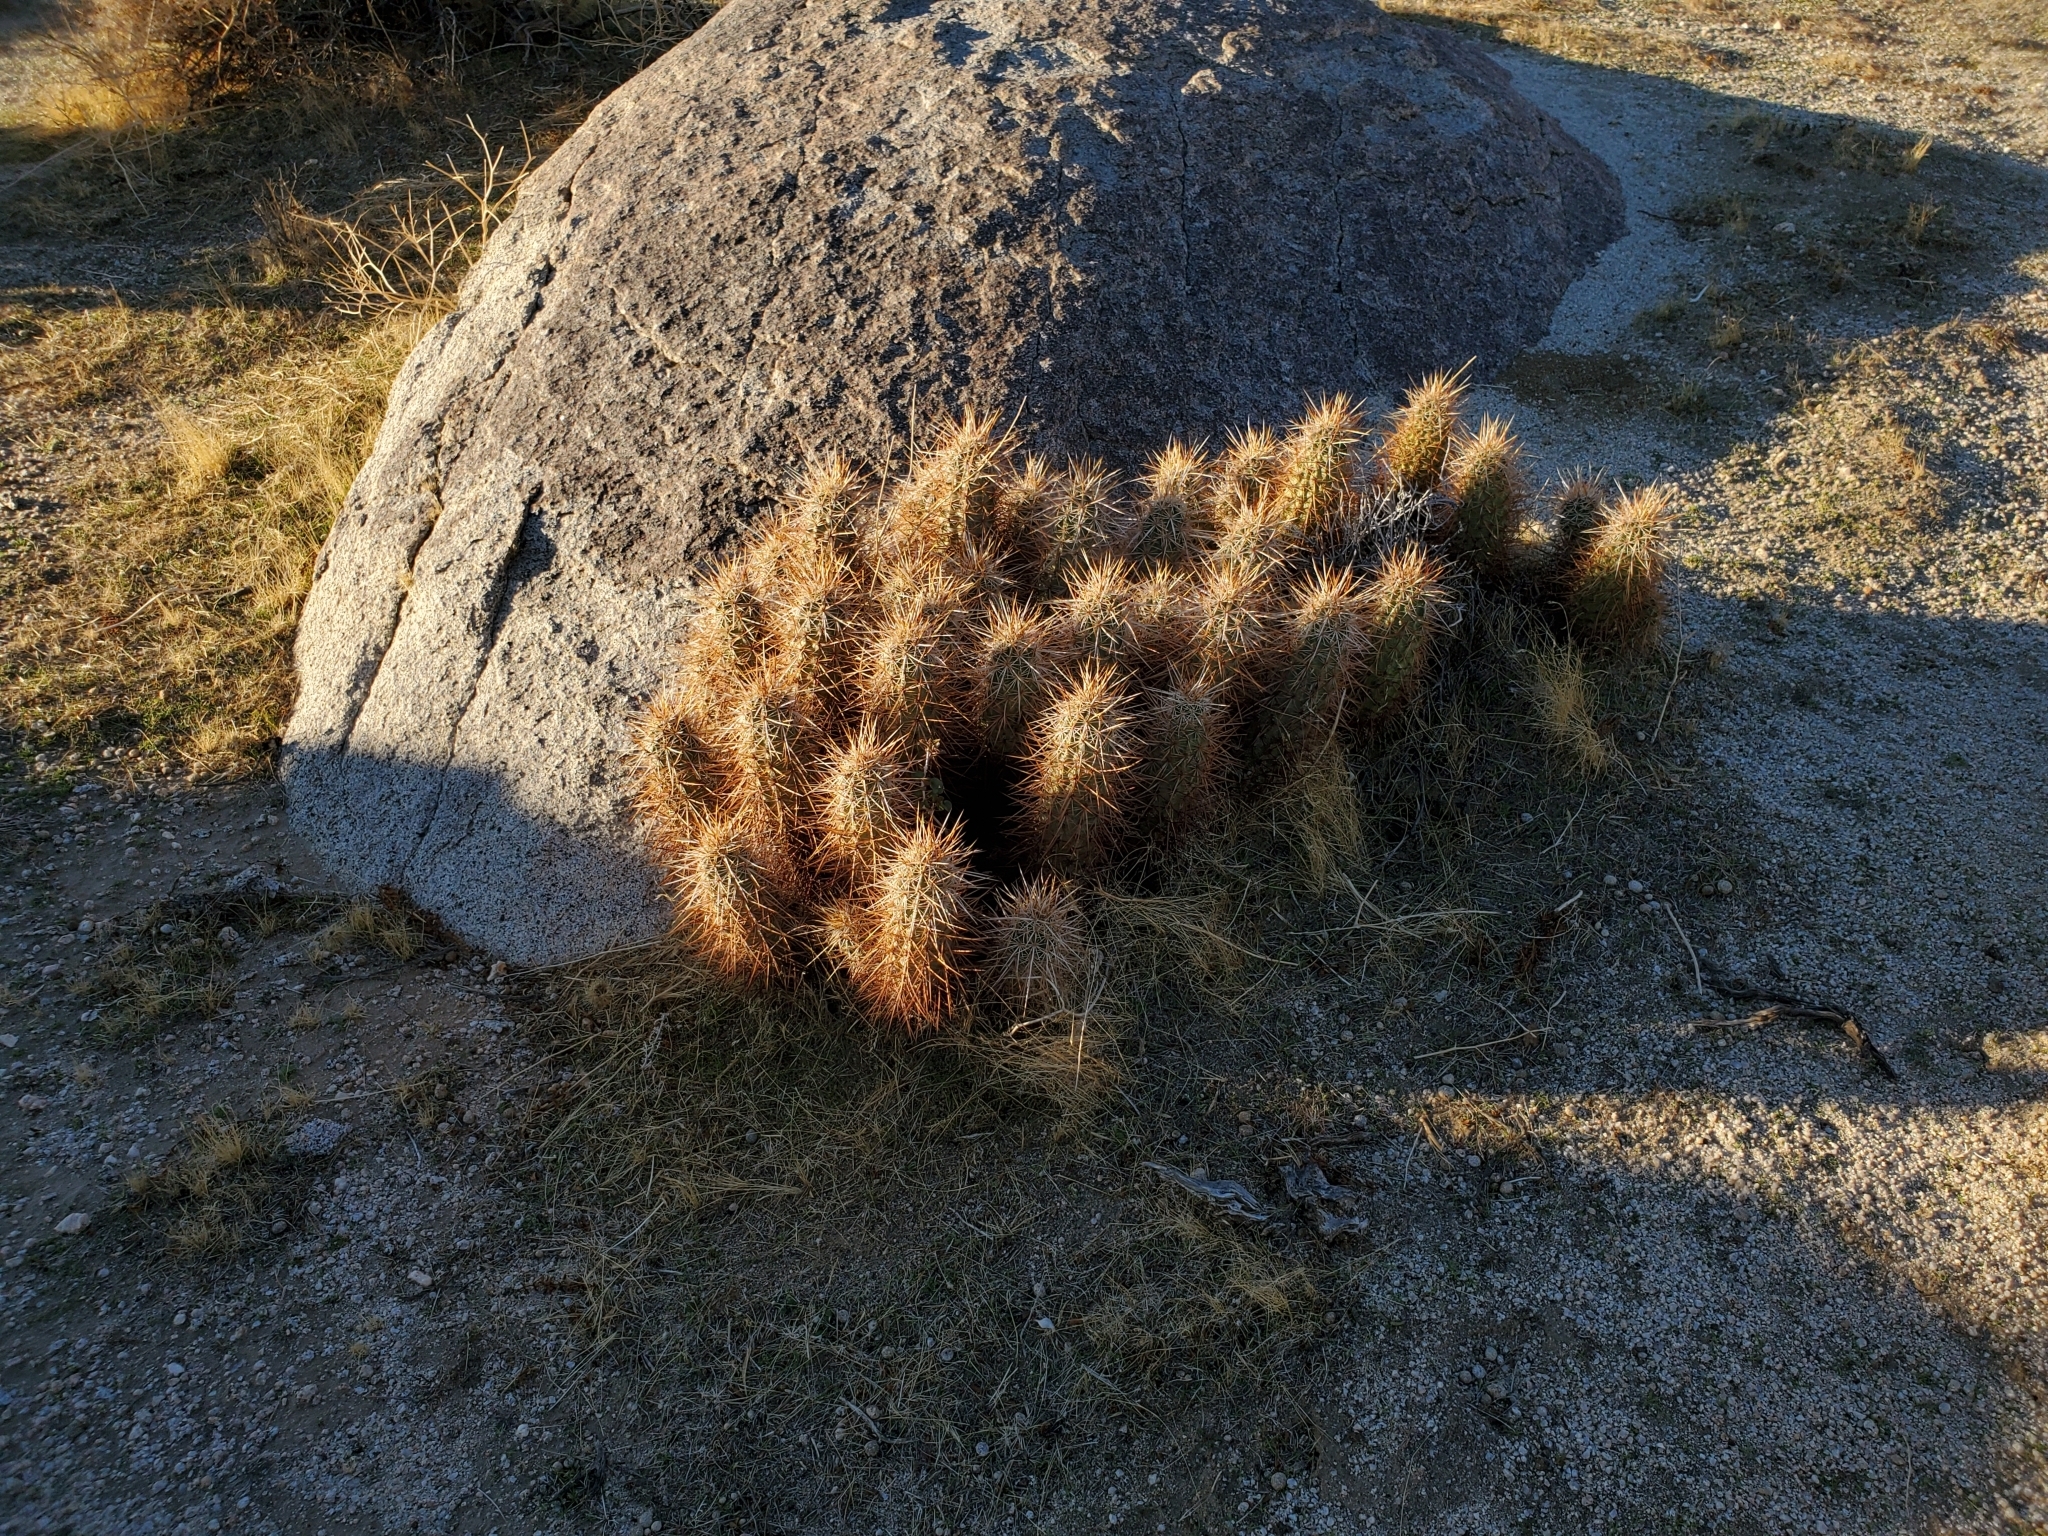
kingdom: Plantae
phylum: Tracheophyta
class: Magnoliopsida
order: Caryophyllales
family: Cactaceae
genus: Echinocereus
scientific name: Echinocereus engelmannii
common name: Engelmann's hedgehog cactus
